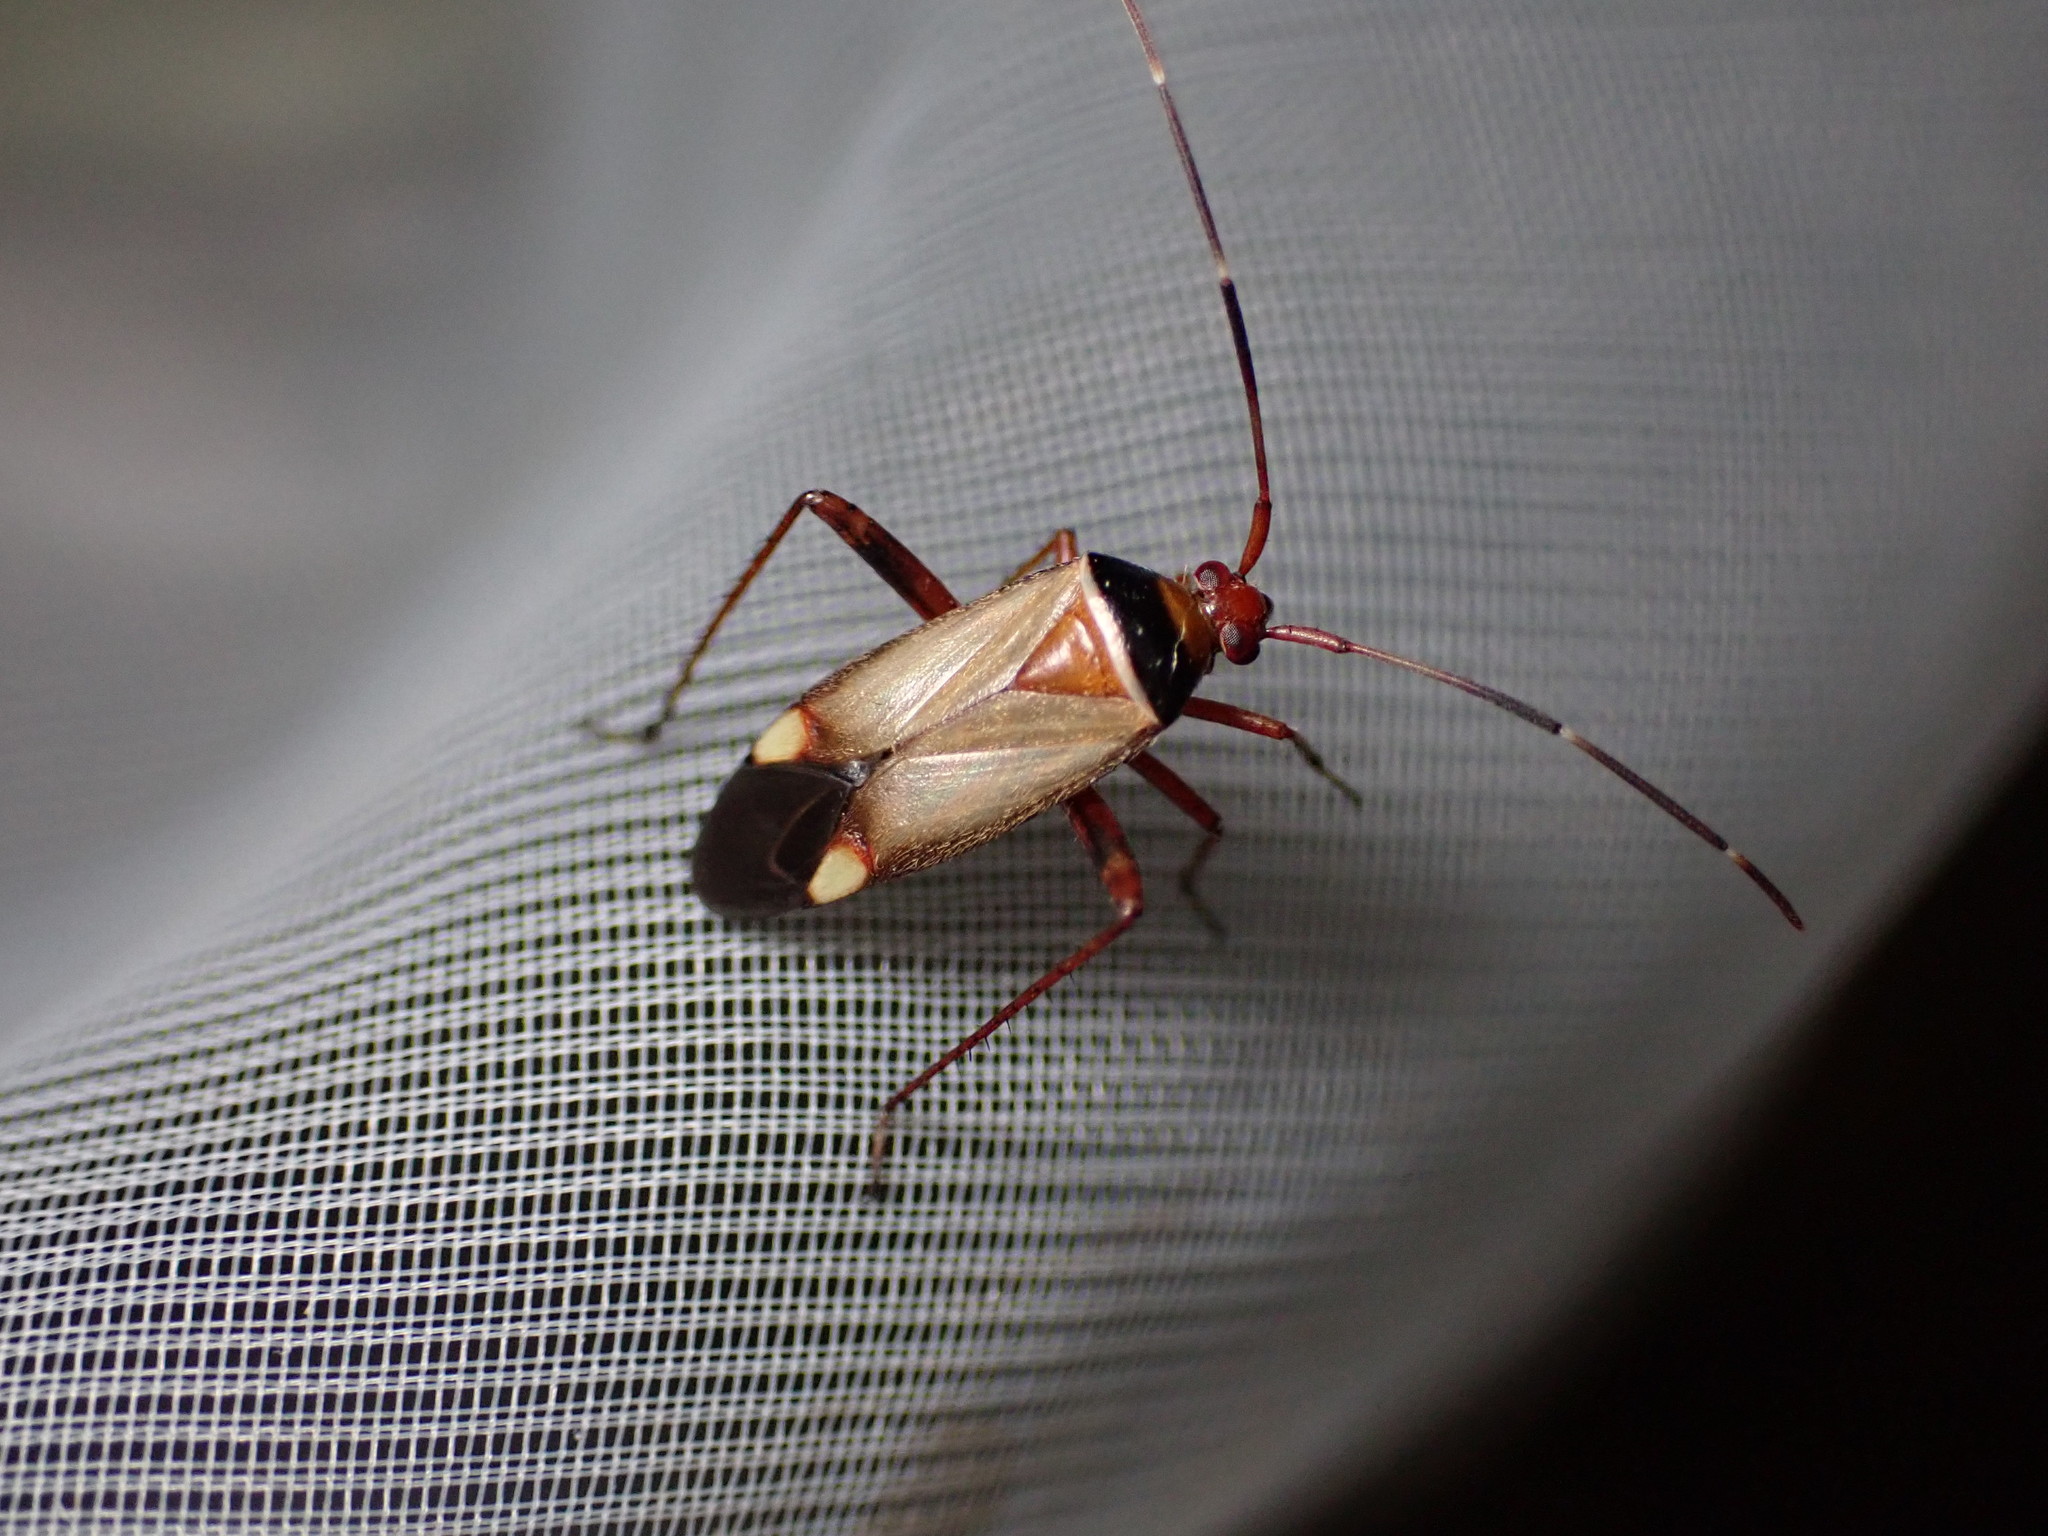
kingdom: Animalia
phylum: Arthropoda
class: Insecta
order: Hemiptera
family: Miridae
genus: Adelphocoris
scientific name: Adelphocoris vandalicus
